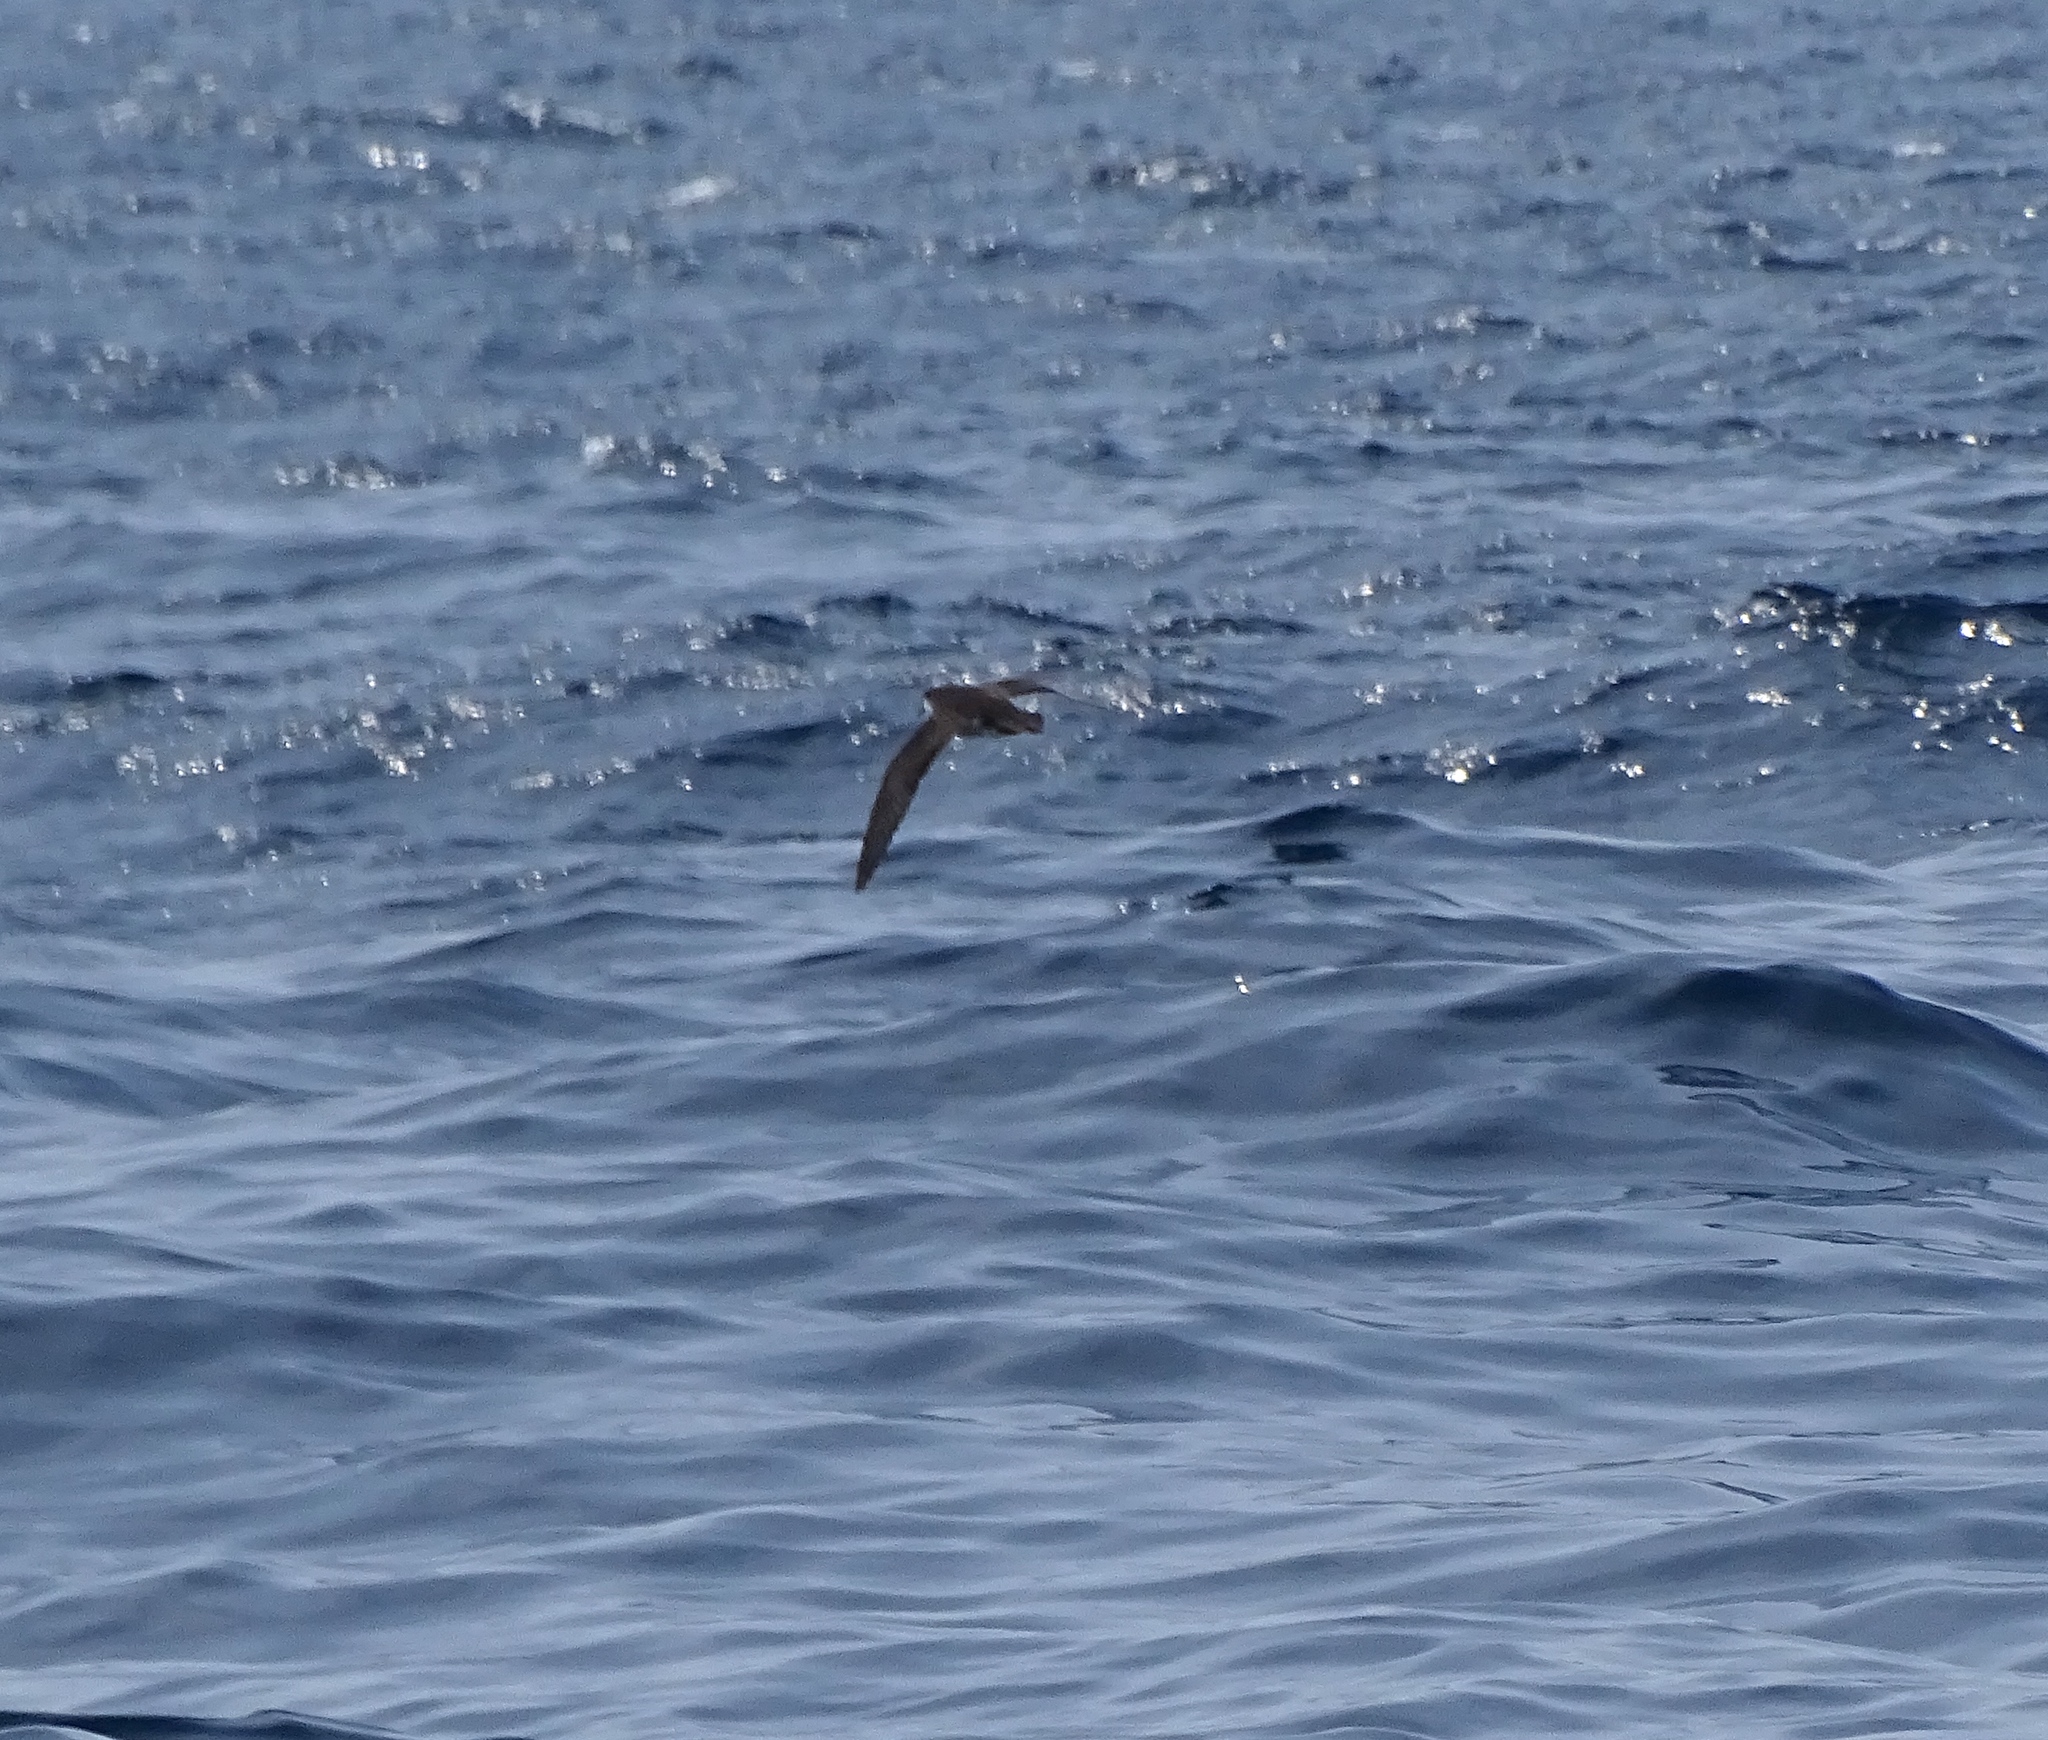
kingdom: Animalia
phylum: Chordata
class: Aves
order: Procellariiformes
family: Procellariidae
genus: Puffinus
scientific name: Puffinus lherminieri
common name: Audubon's shearwater
